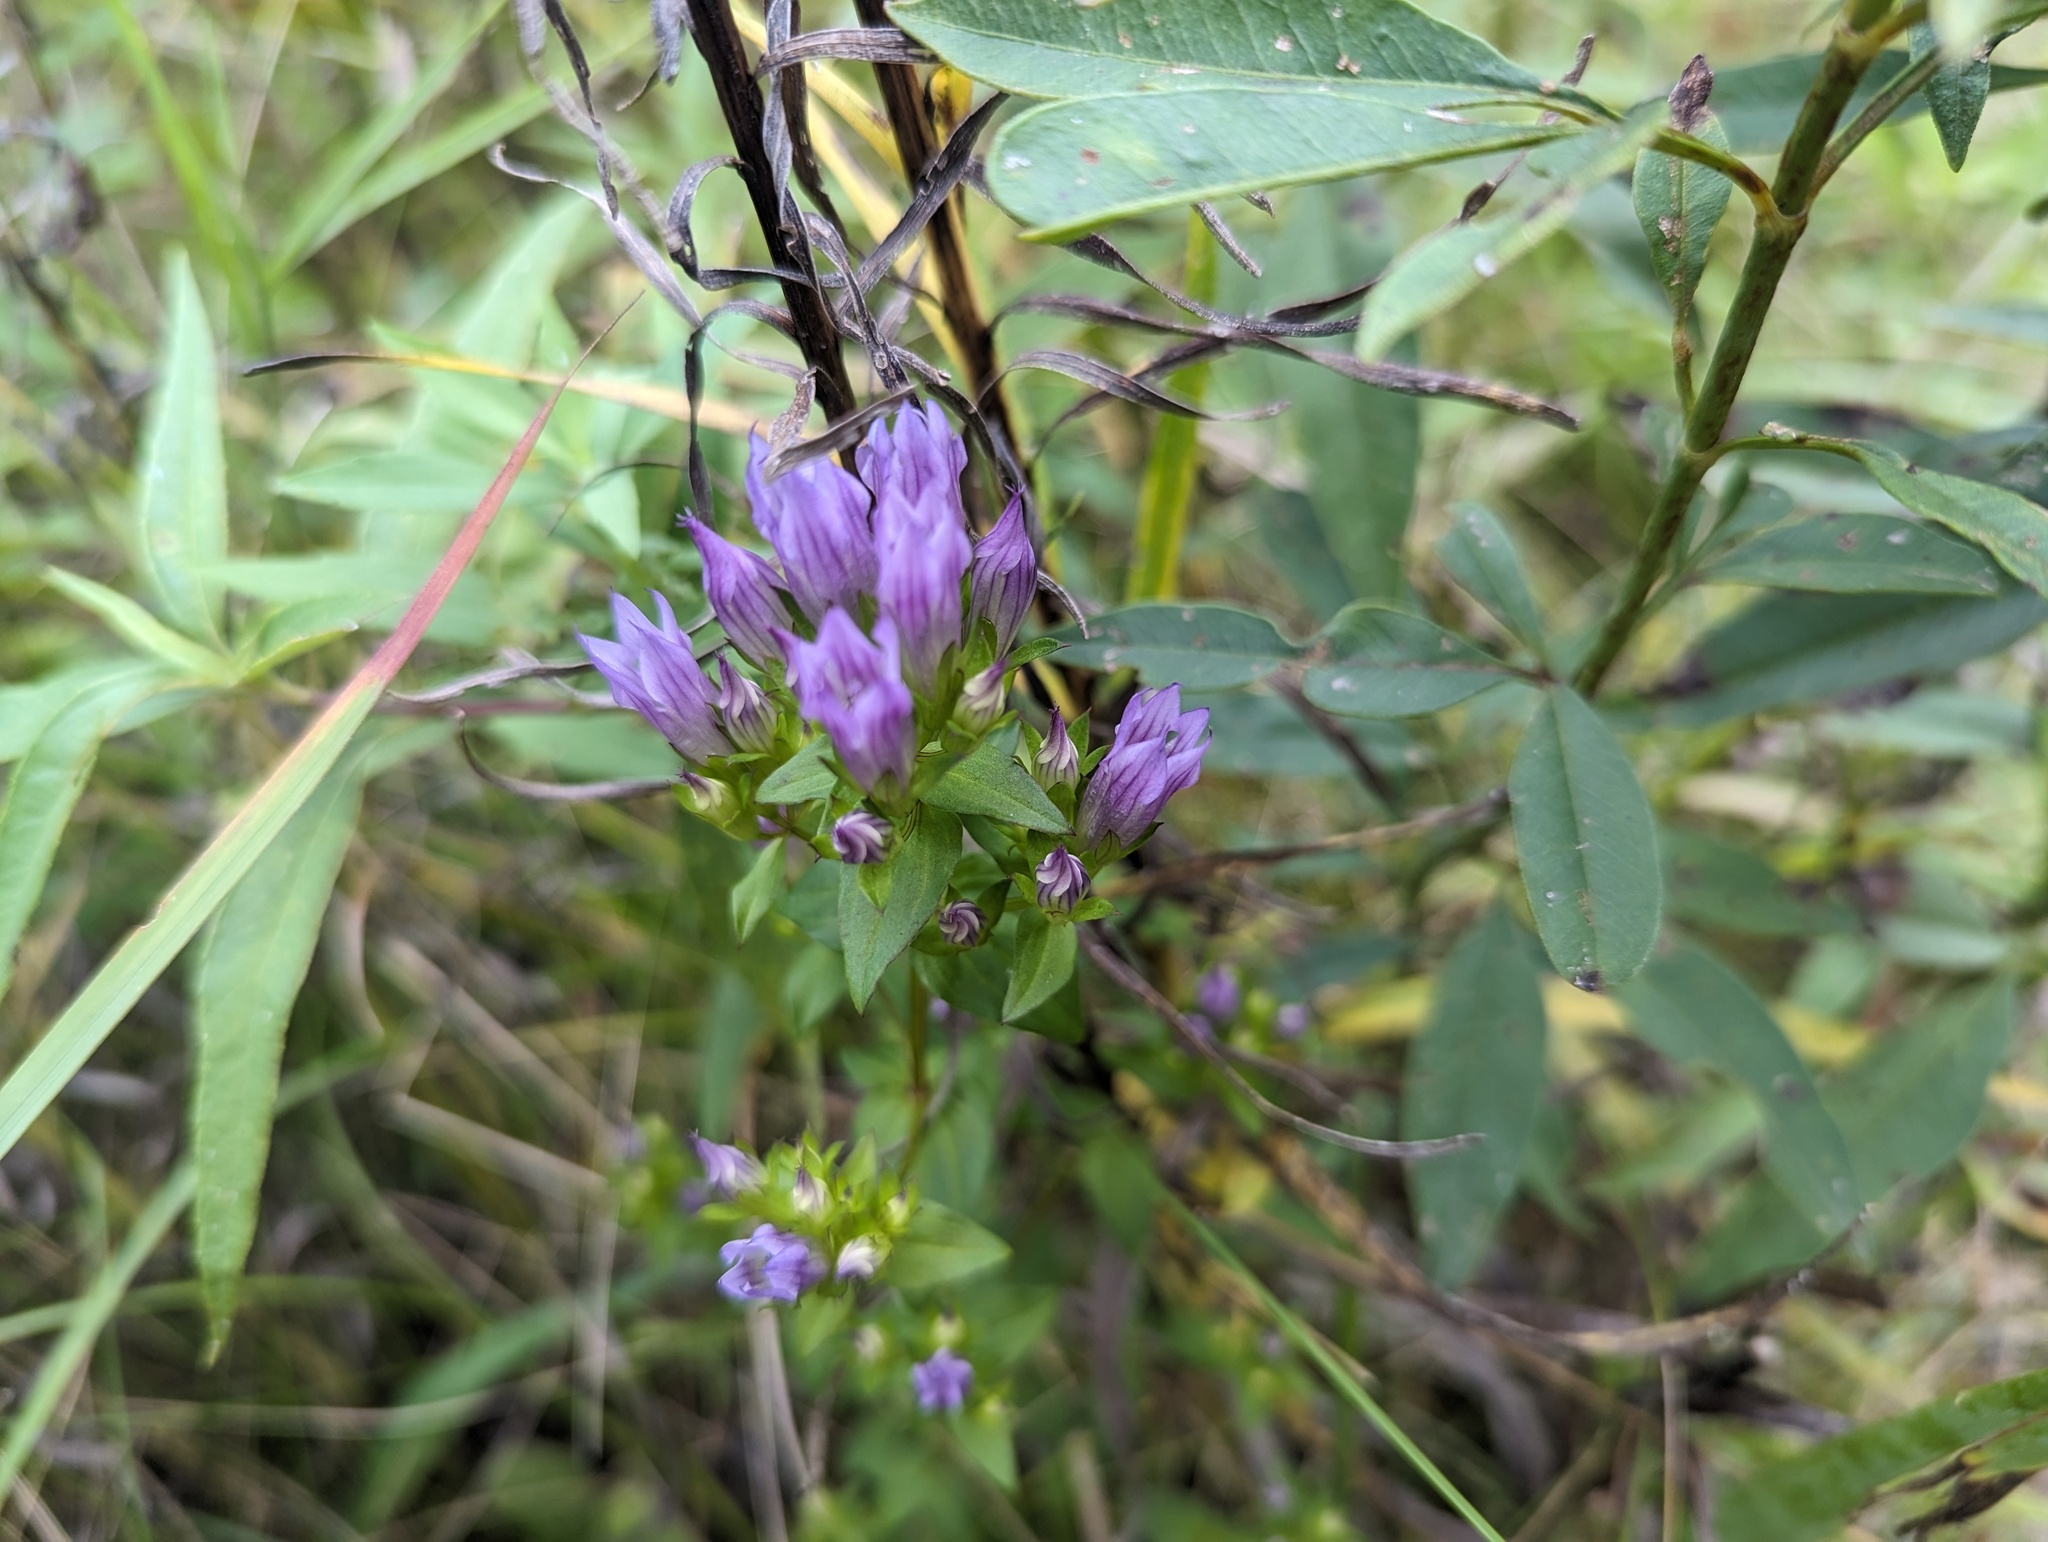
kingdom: Plantae
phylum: Tracheophyta
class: Magnoliopsida
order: Gentianales
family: Gentianaceae
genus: Gentianella
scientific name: Gentianella quinquefolia
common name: Agueweed
